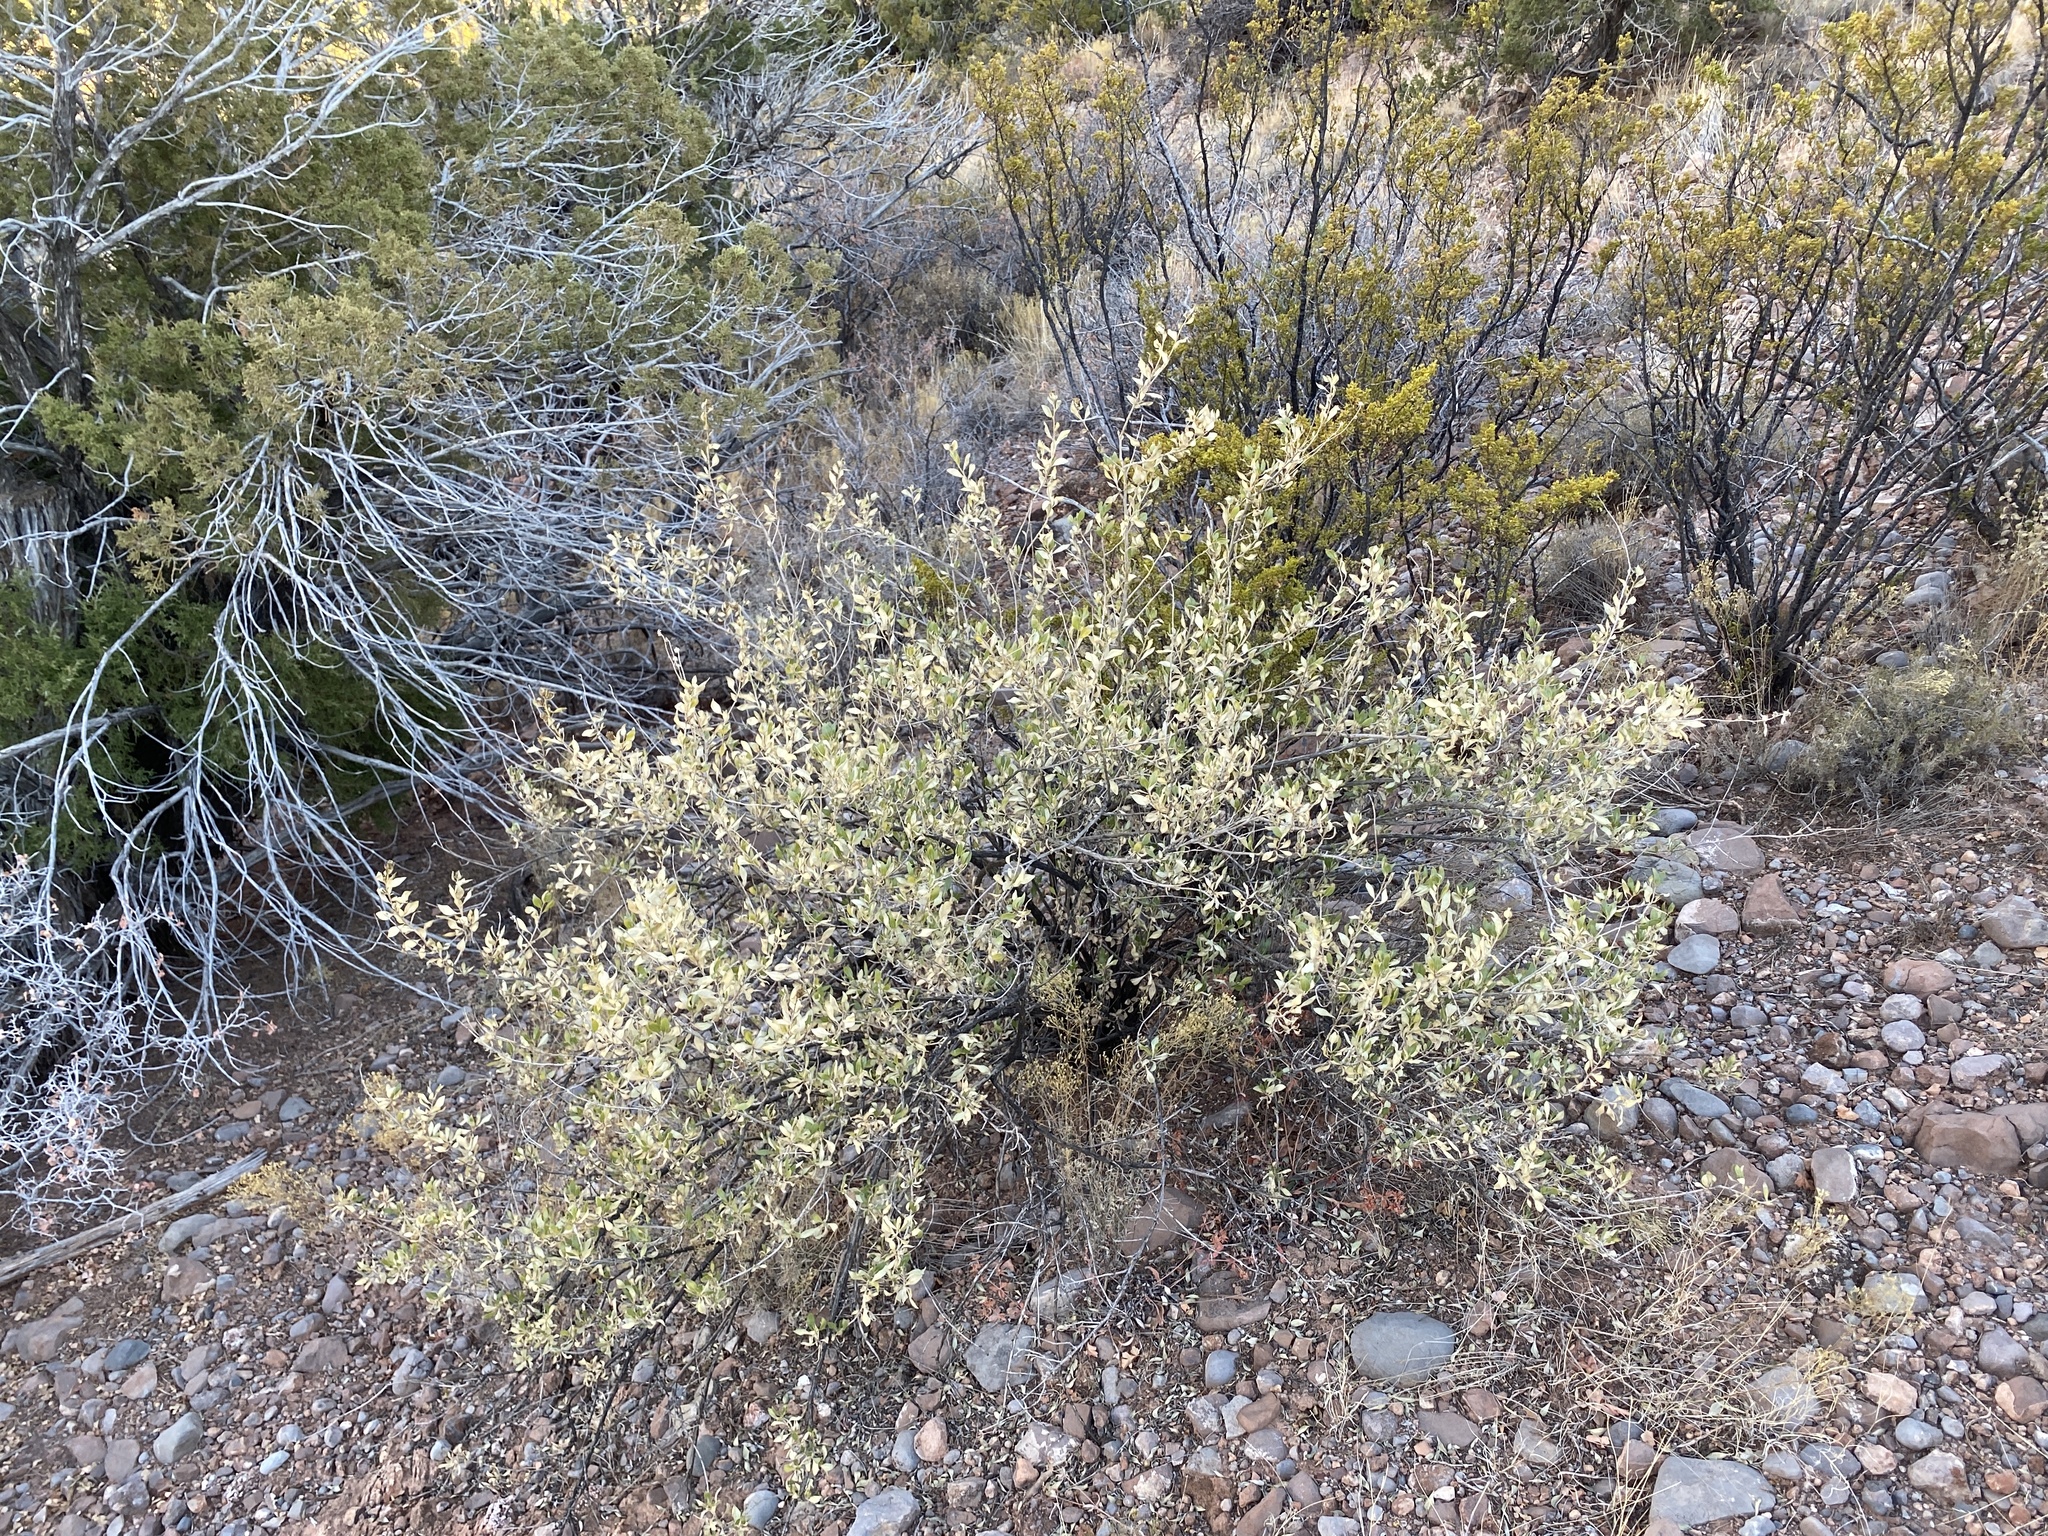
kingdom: Plantae
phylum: Tracheophyta
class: Magnoliopsida
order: Asterales
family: Asteraceae
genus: Flourensia
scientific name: Flourensia cernua
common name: Varnishbush
